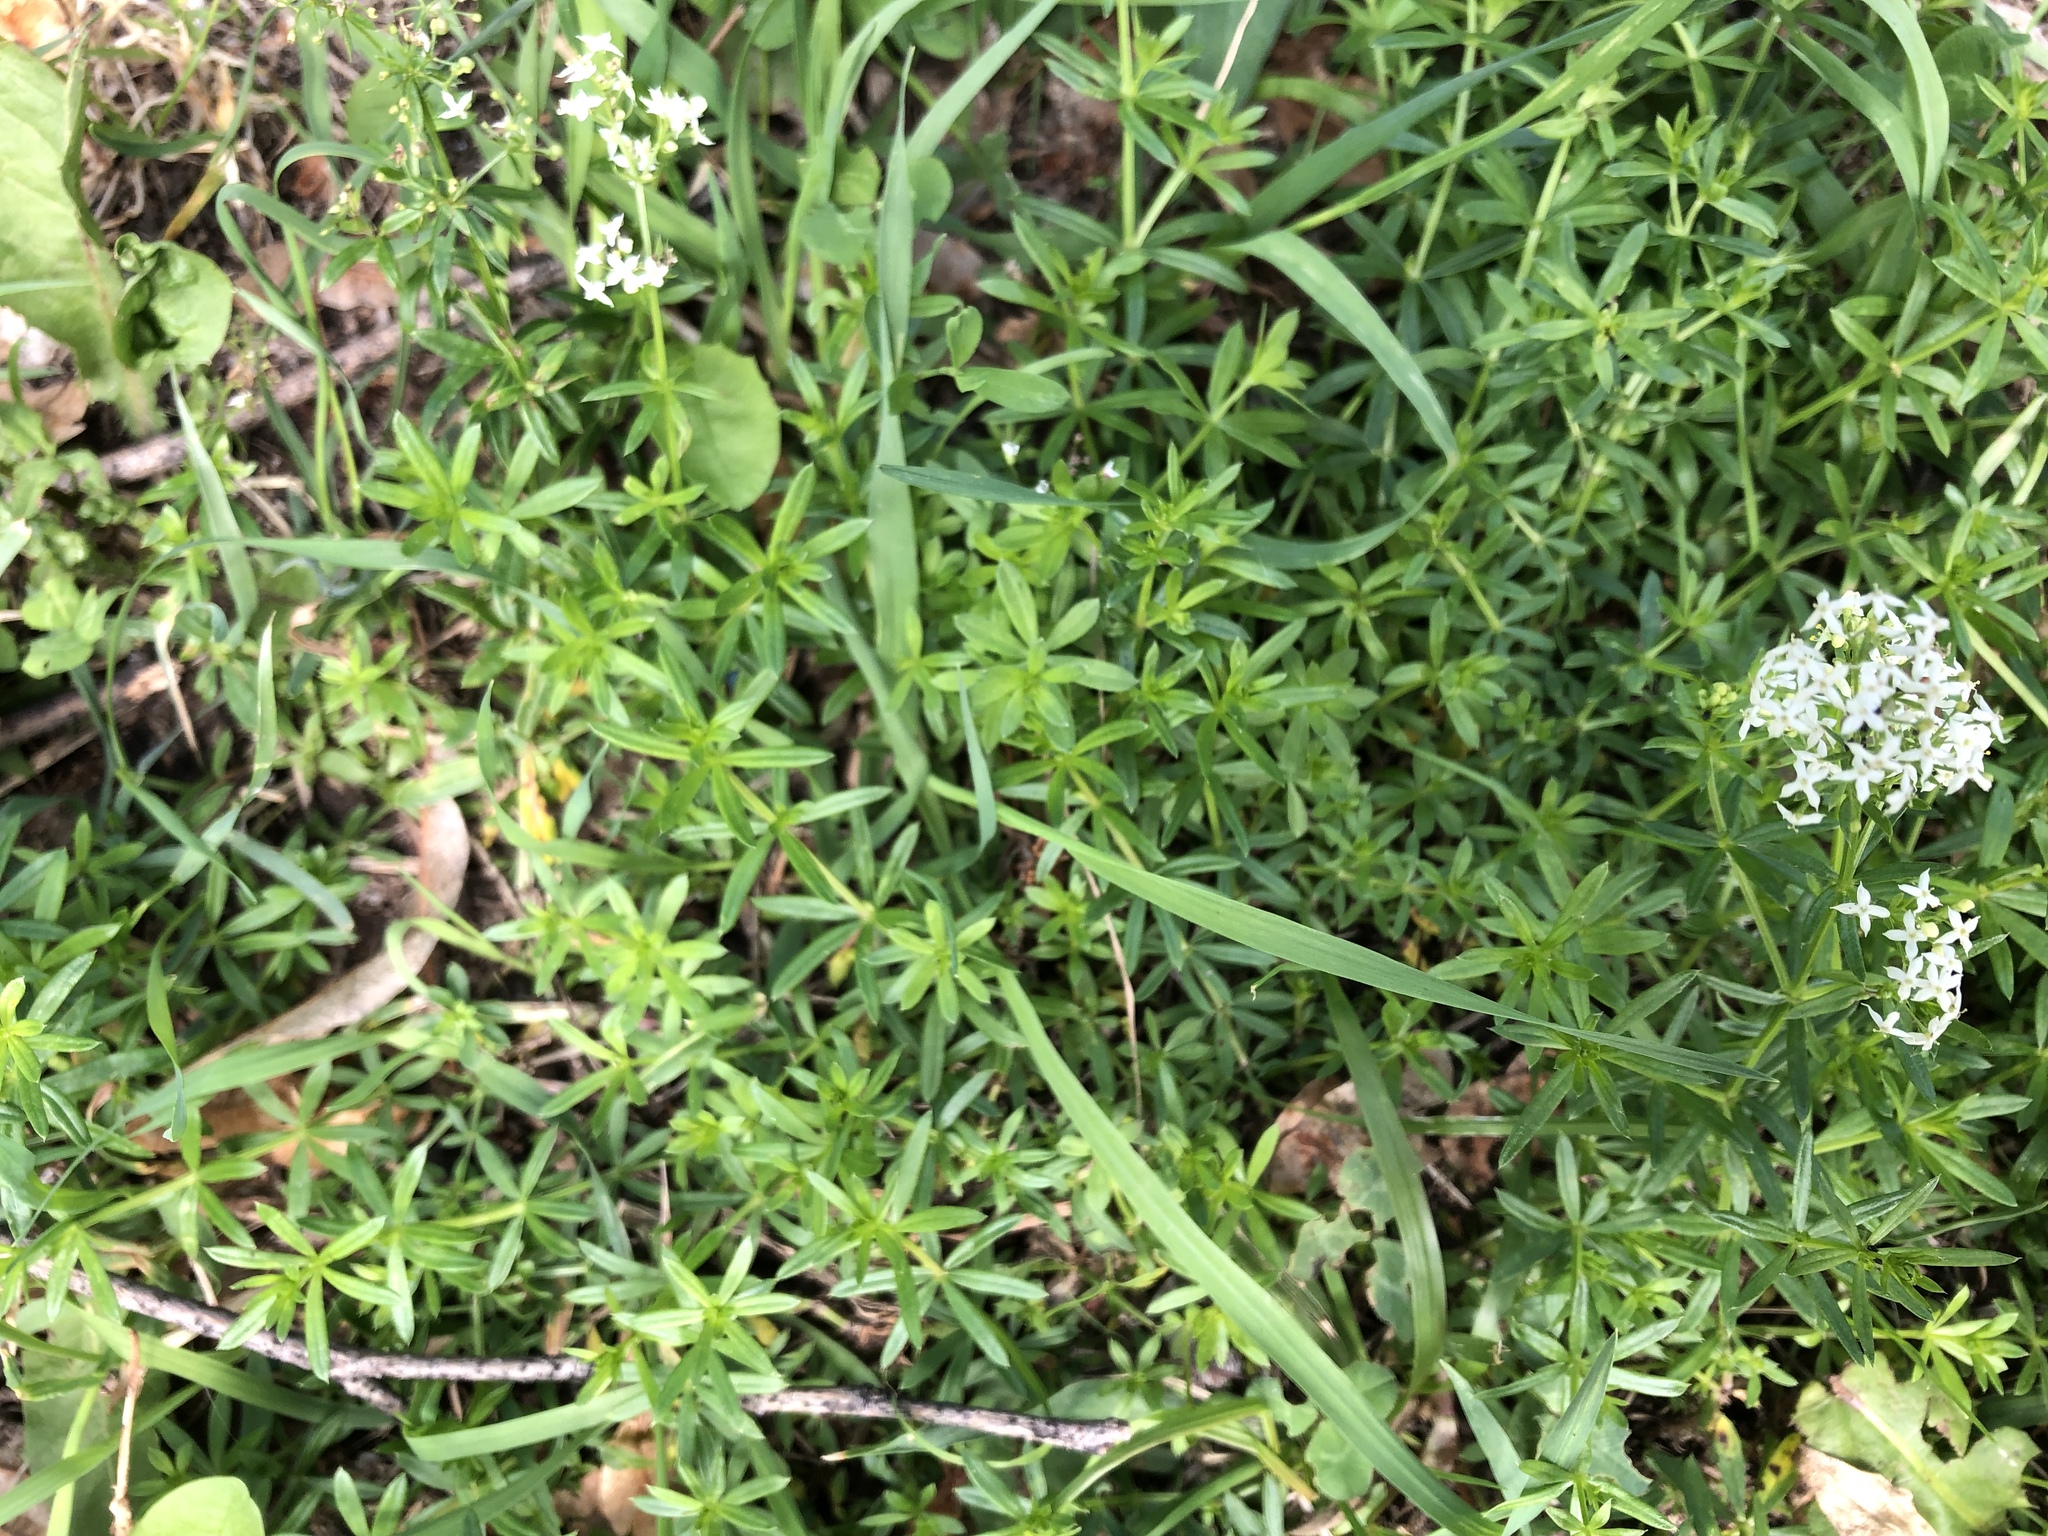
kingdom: Plantae
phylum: Tracheophyta
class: Magnoliopsida
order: Gentianales
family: Rubiaceae
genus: Galium
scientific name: Galium mollugo
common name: Hedge bedstraw
